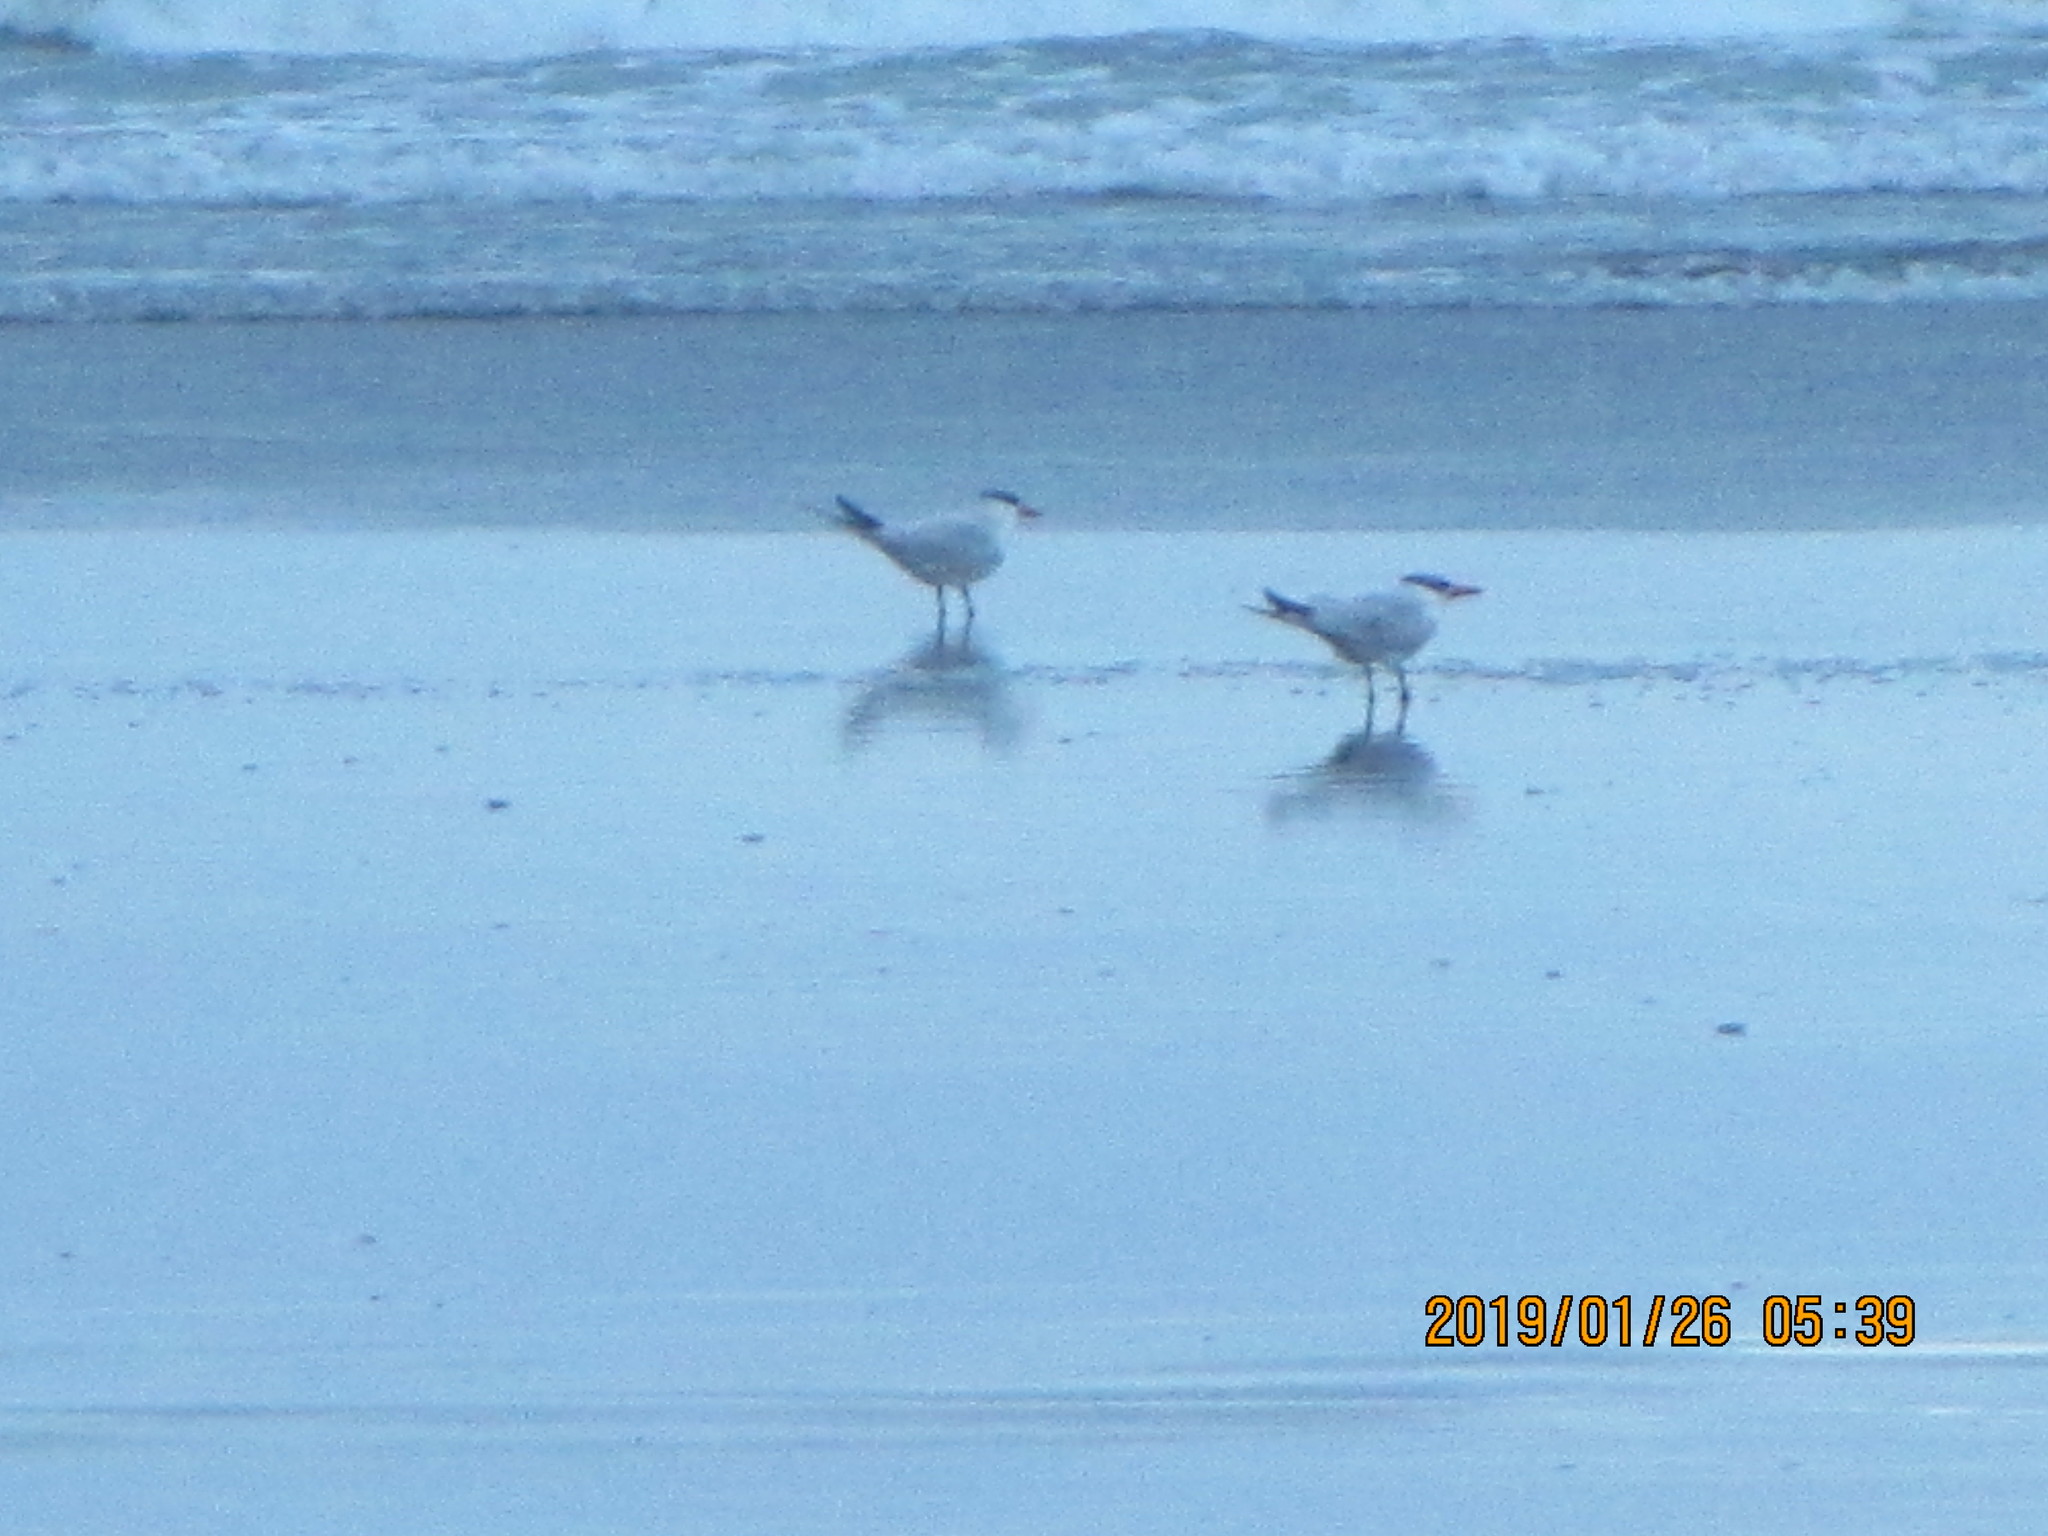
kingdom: Animalia
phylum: Chordata
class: Aves
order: Charadriiformes
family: Laridae
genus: Hydroprogne
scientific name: Hydroprogne caspia
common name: Caspian tern
